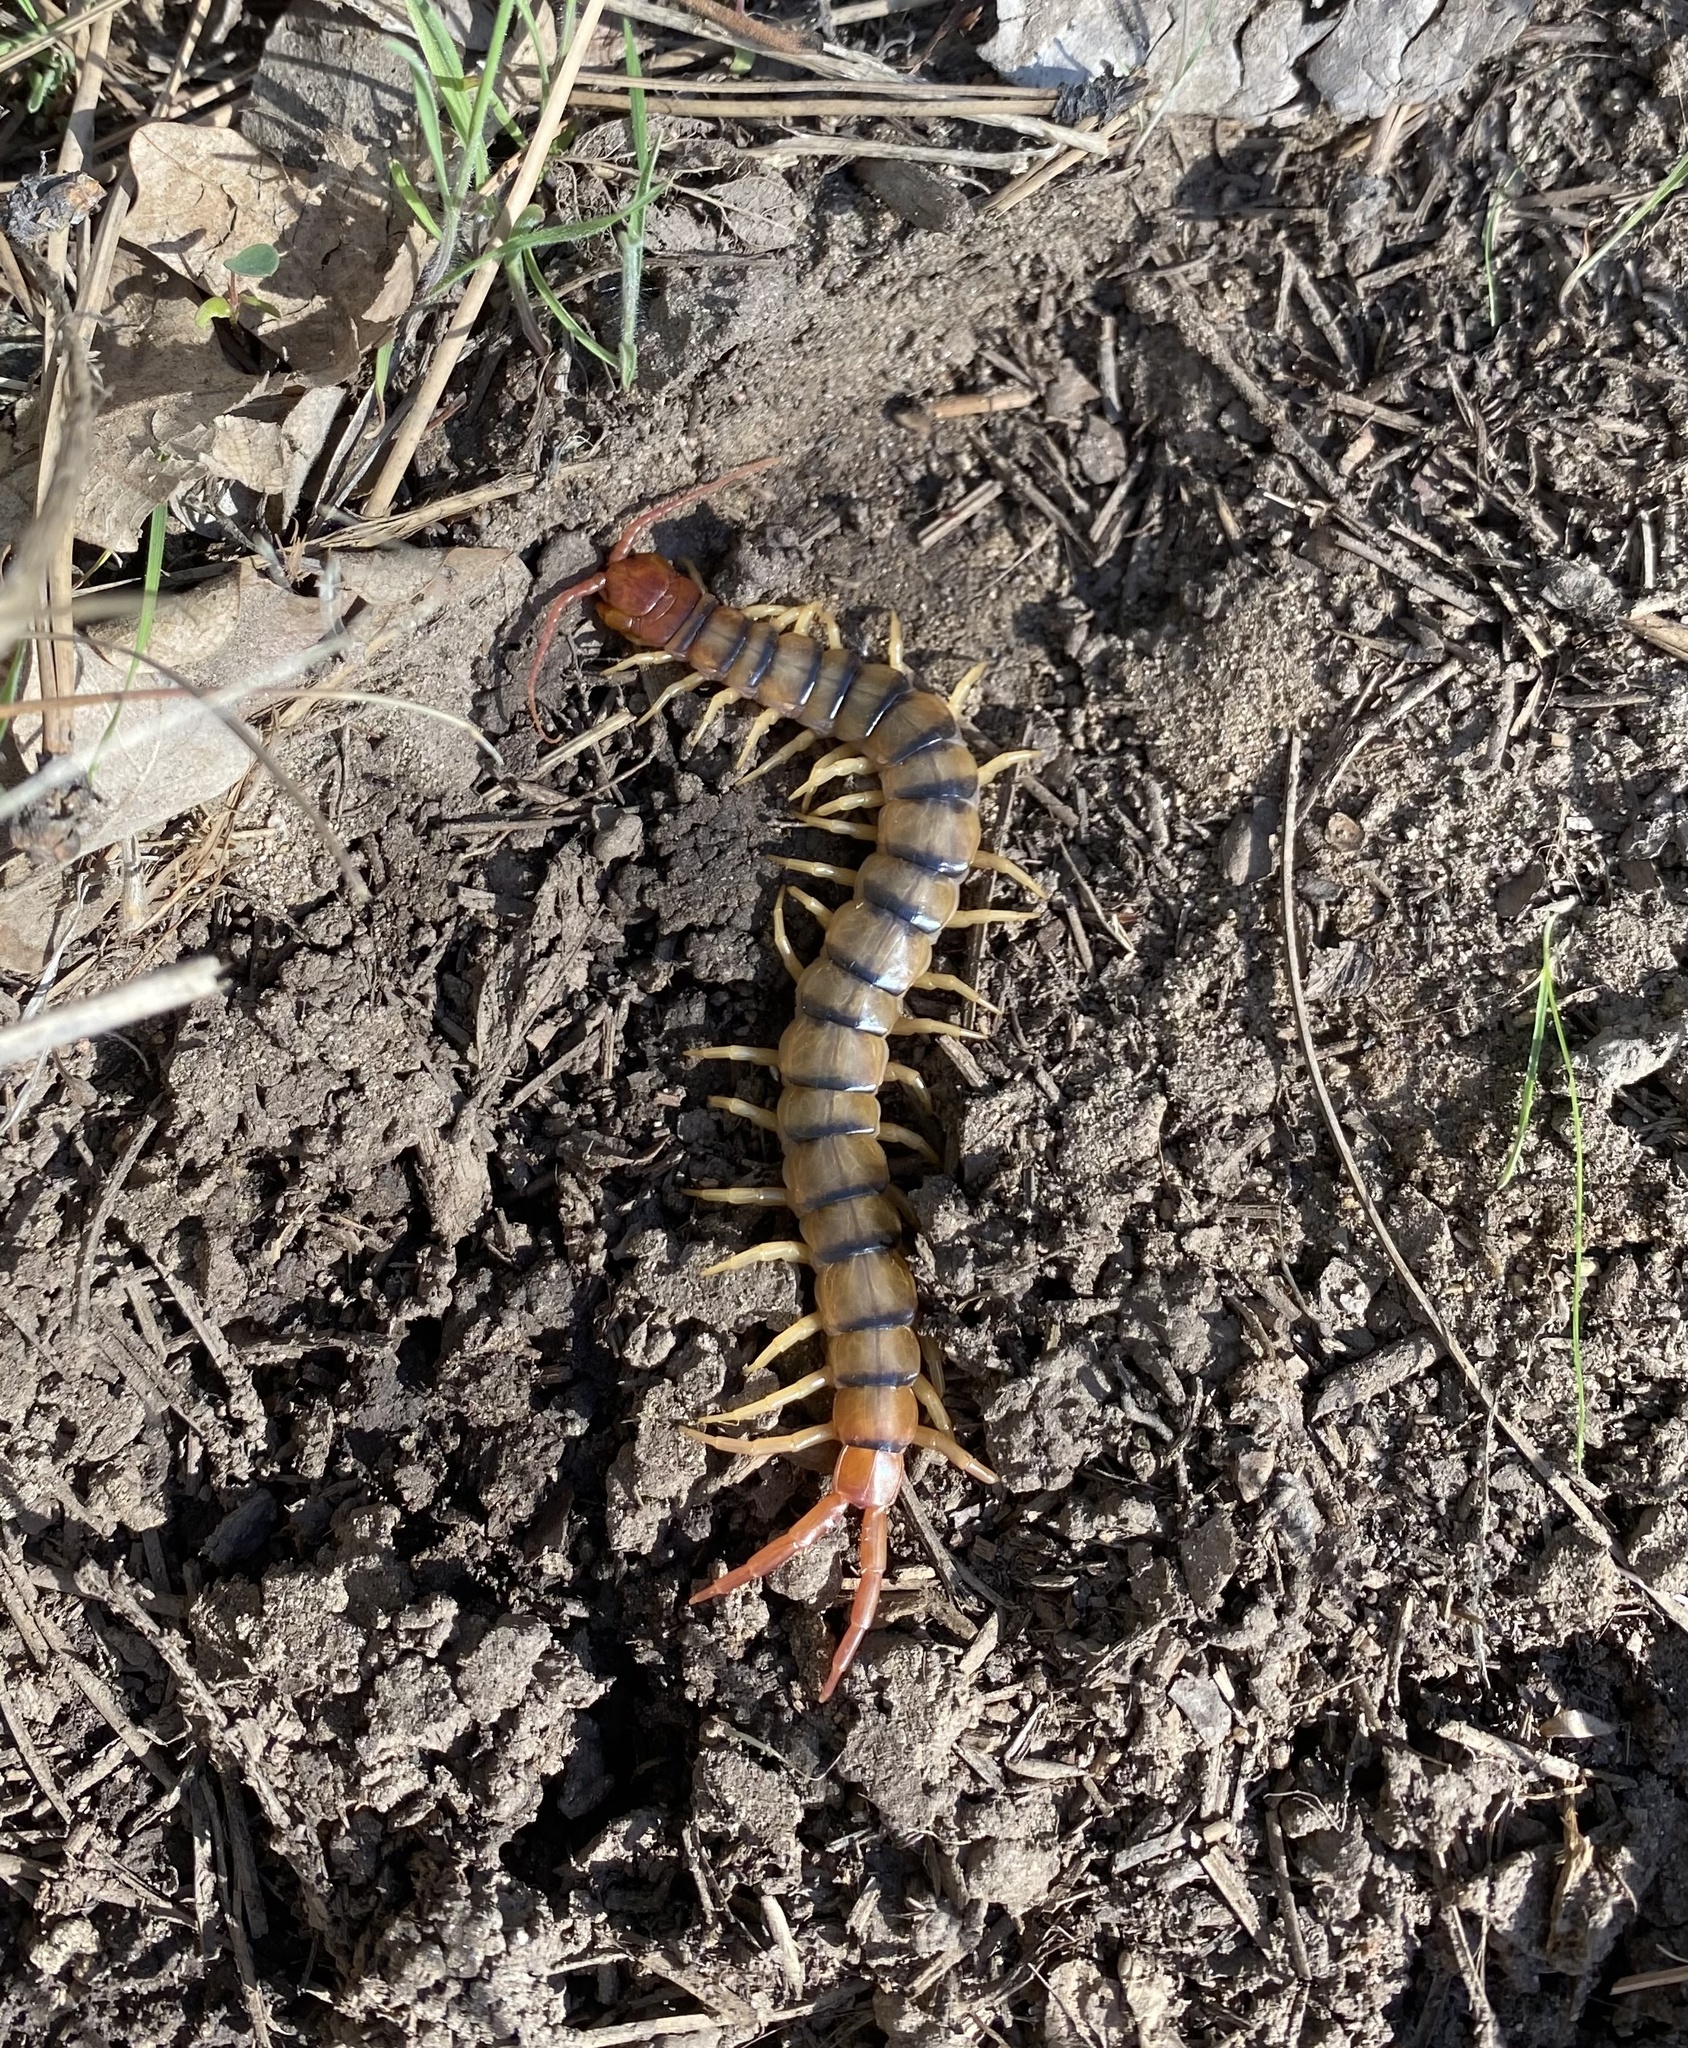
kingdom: Animalia
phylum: Arthropoda
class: Chilopoda
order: Scolopendromorpha
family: Scolopendridae
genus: Scolopendra
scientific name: Scolopendra polymorpha
